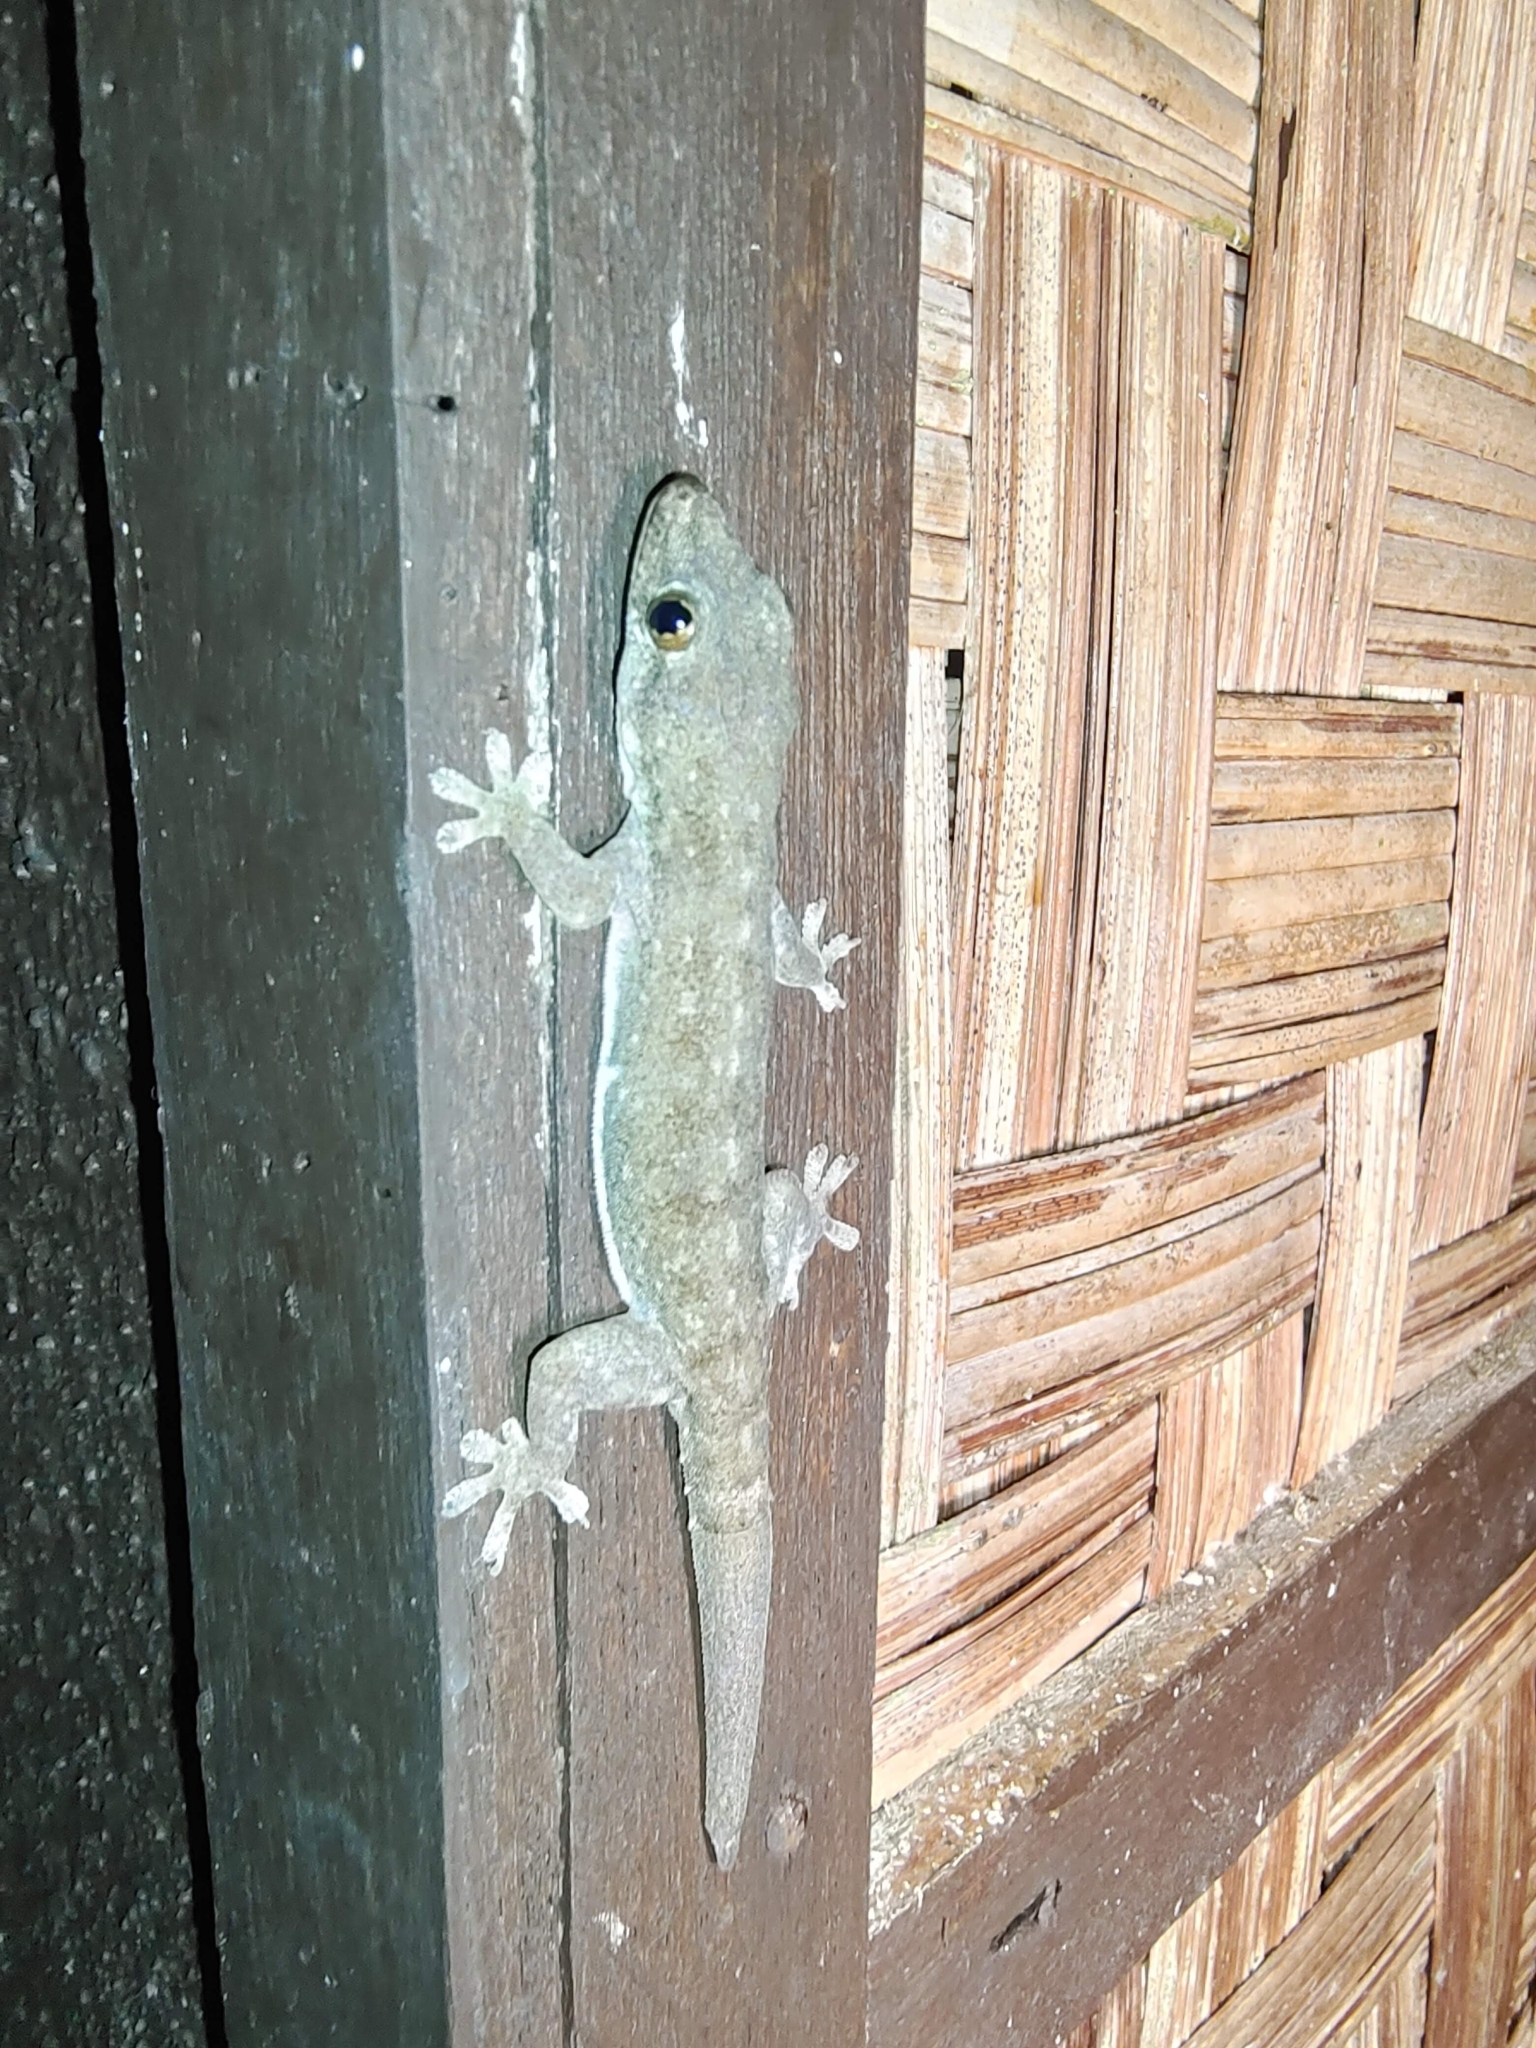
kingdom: Animalia
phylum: Chordata
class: Squamata
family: Gekkonidae
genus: Hemidactylus
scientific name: Hemidactylus frenatus
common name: Common house gecko
